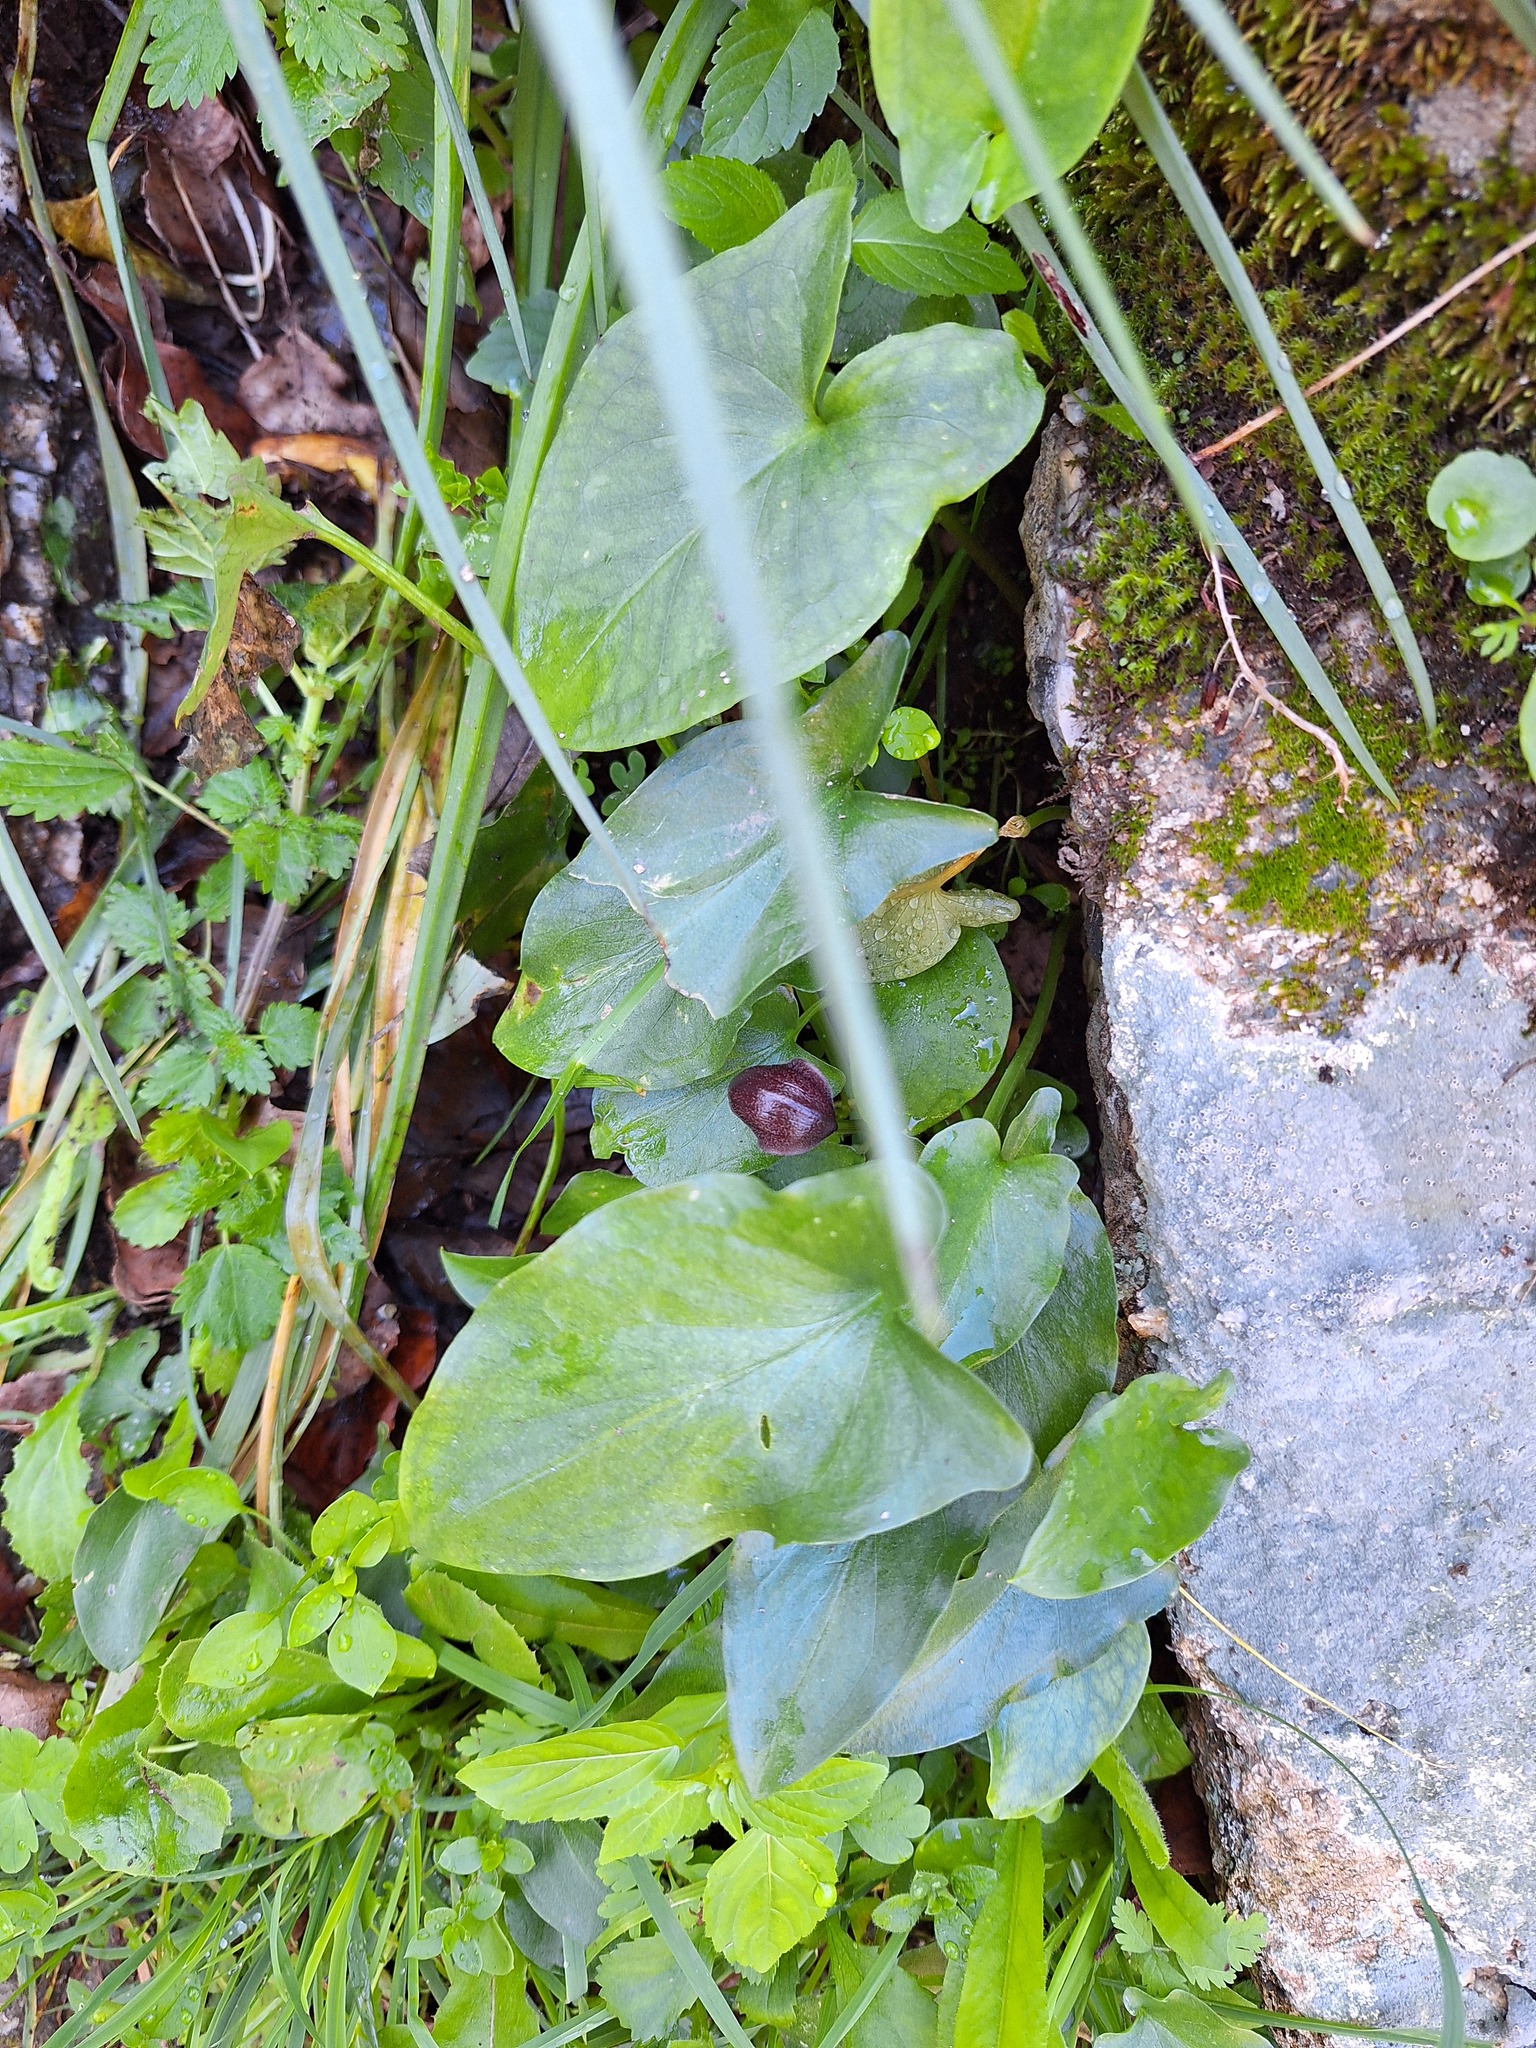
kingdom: Plantae
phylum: Tracheophyta
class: Liliopsida
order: Alismatales
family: Araceae
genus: Arisarum
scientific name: Arisarum simorrhinum
